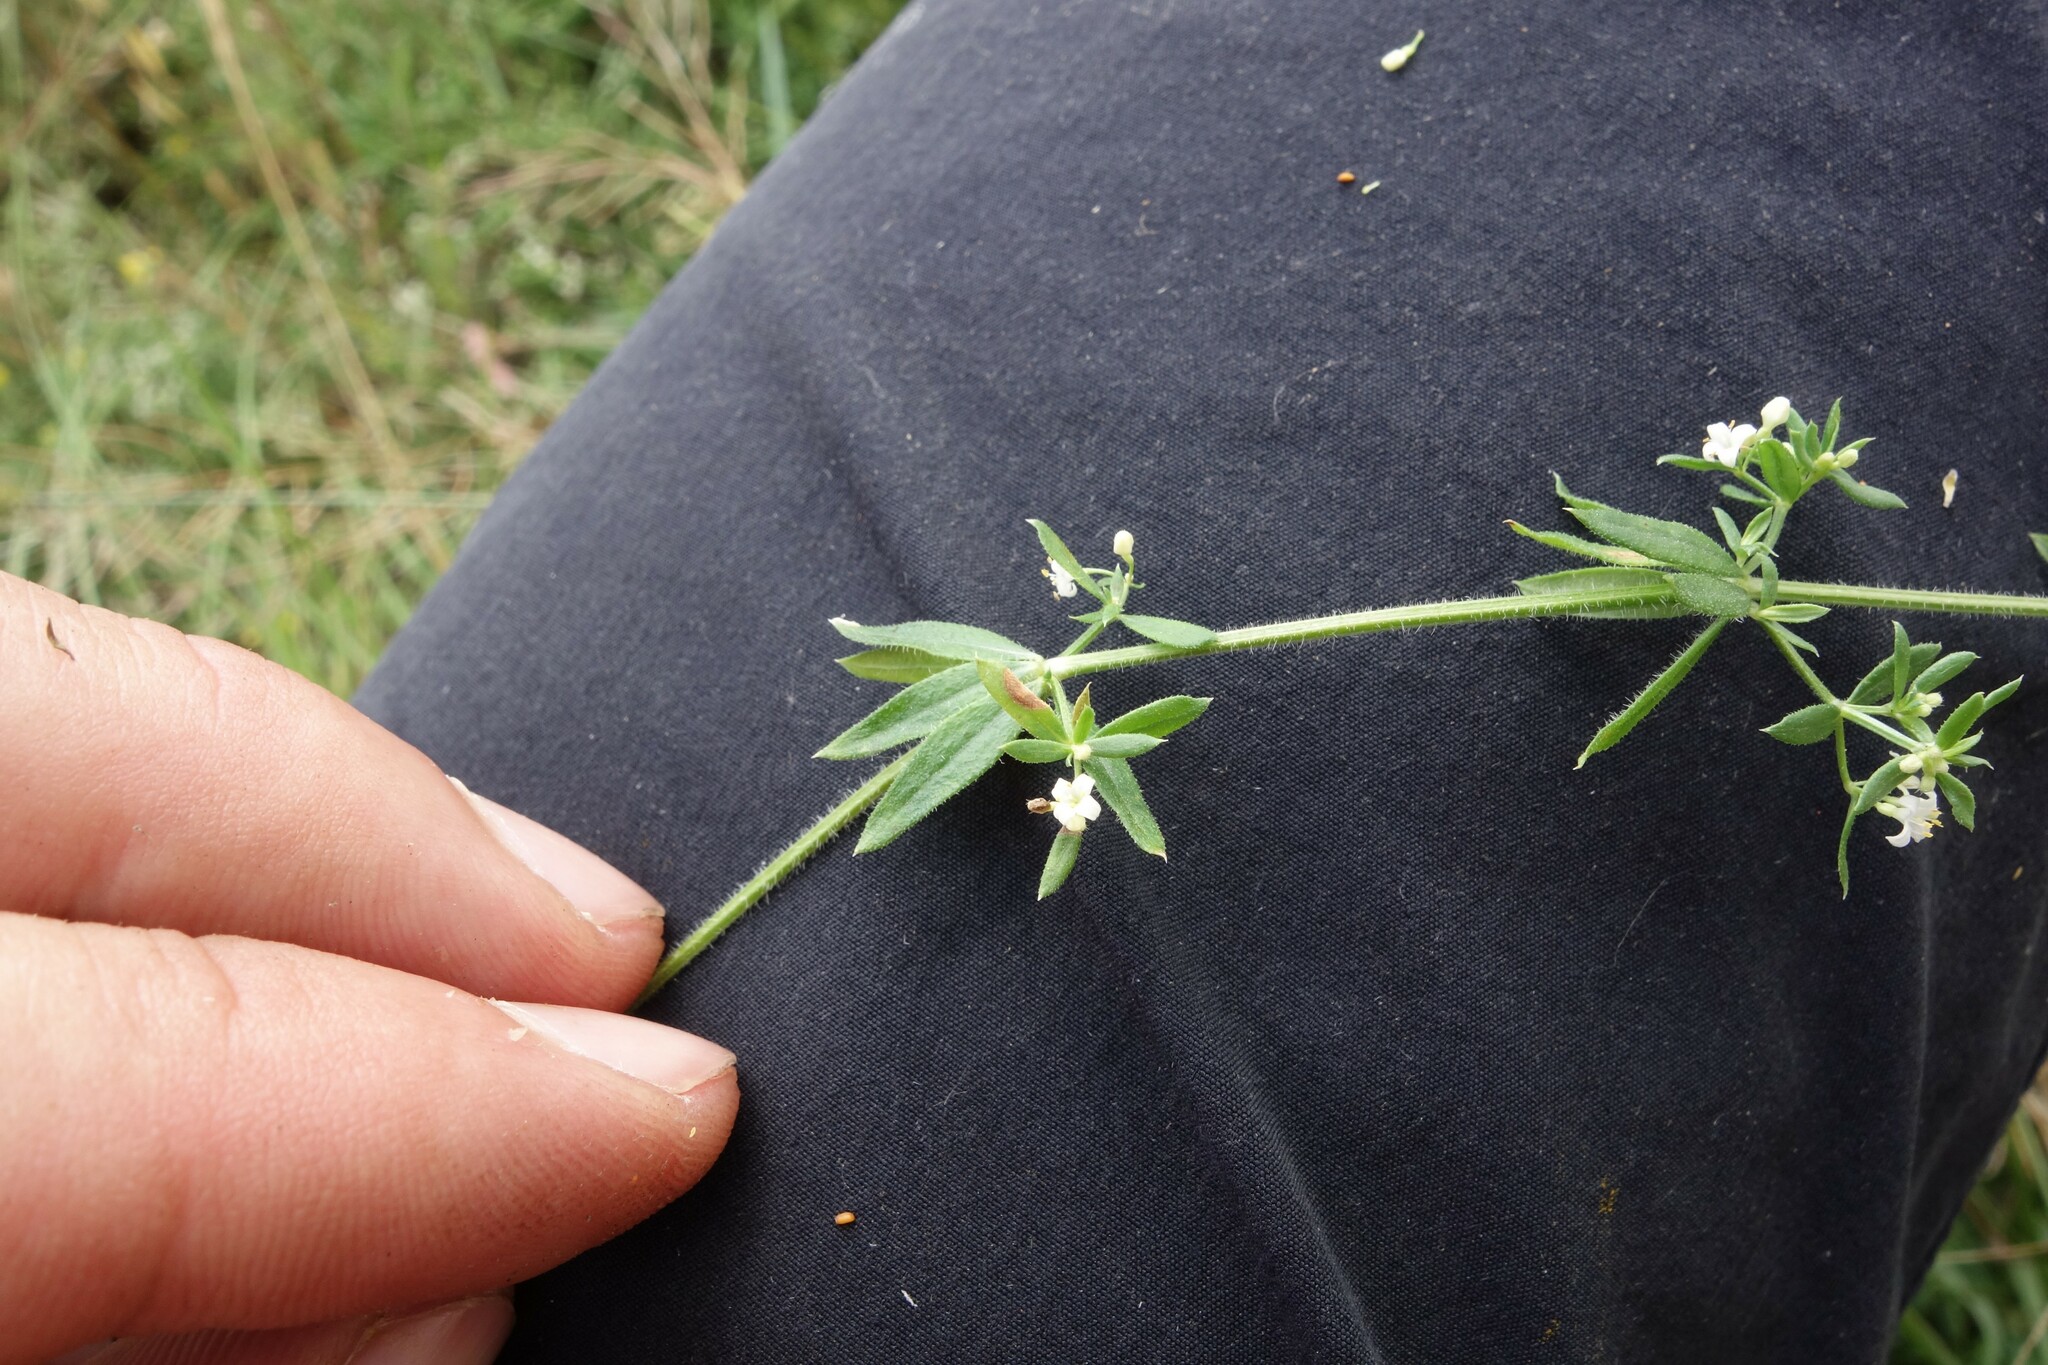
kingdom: Plantae
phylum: Tracheophyta
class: Magnoliopsida
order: Gentianales
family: Rubiaceae
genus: Galium
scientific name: Galium humifusum
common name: Spreading bedstraw
